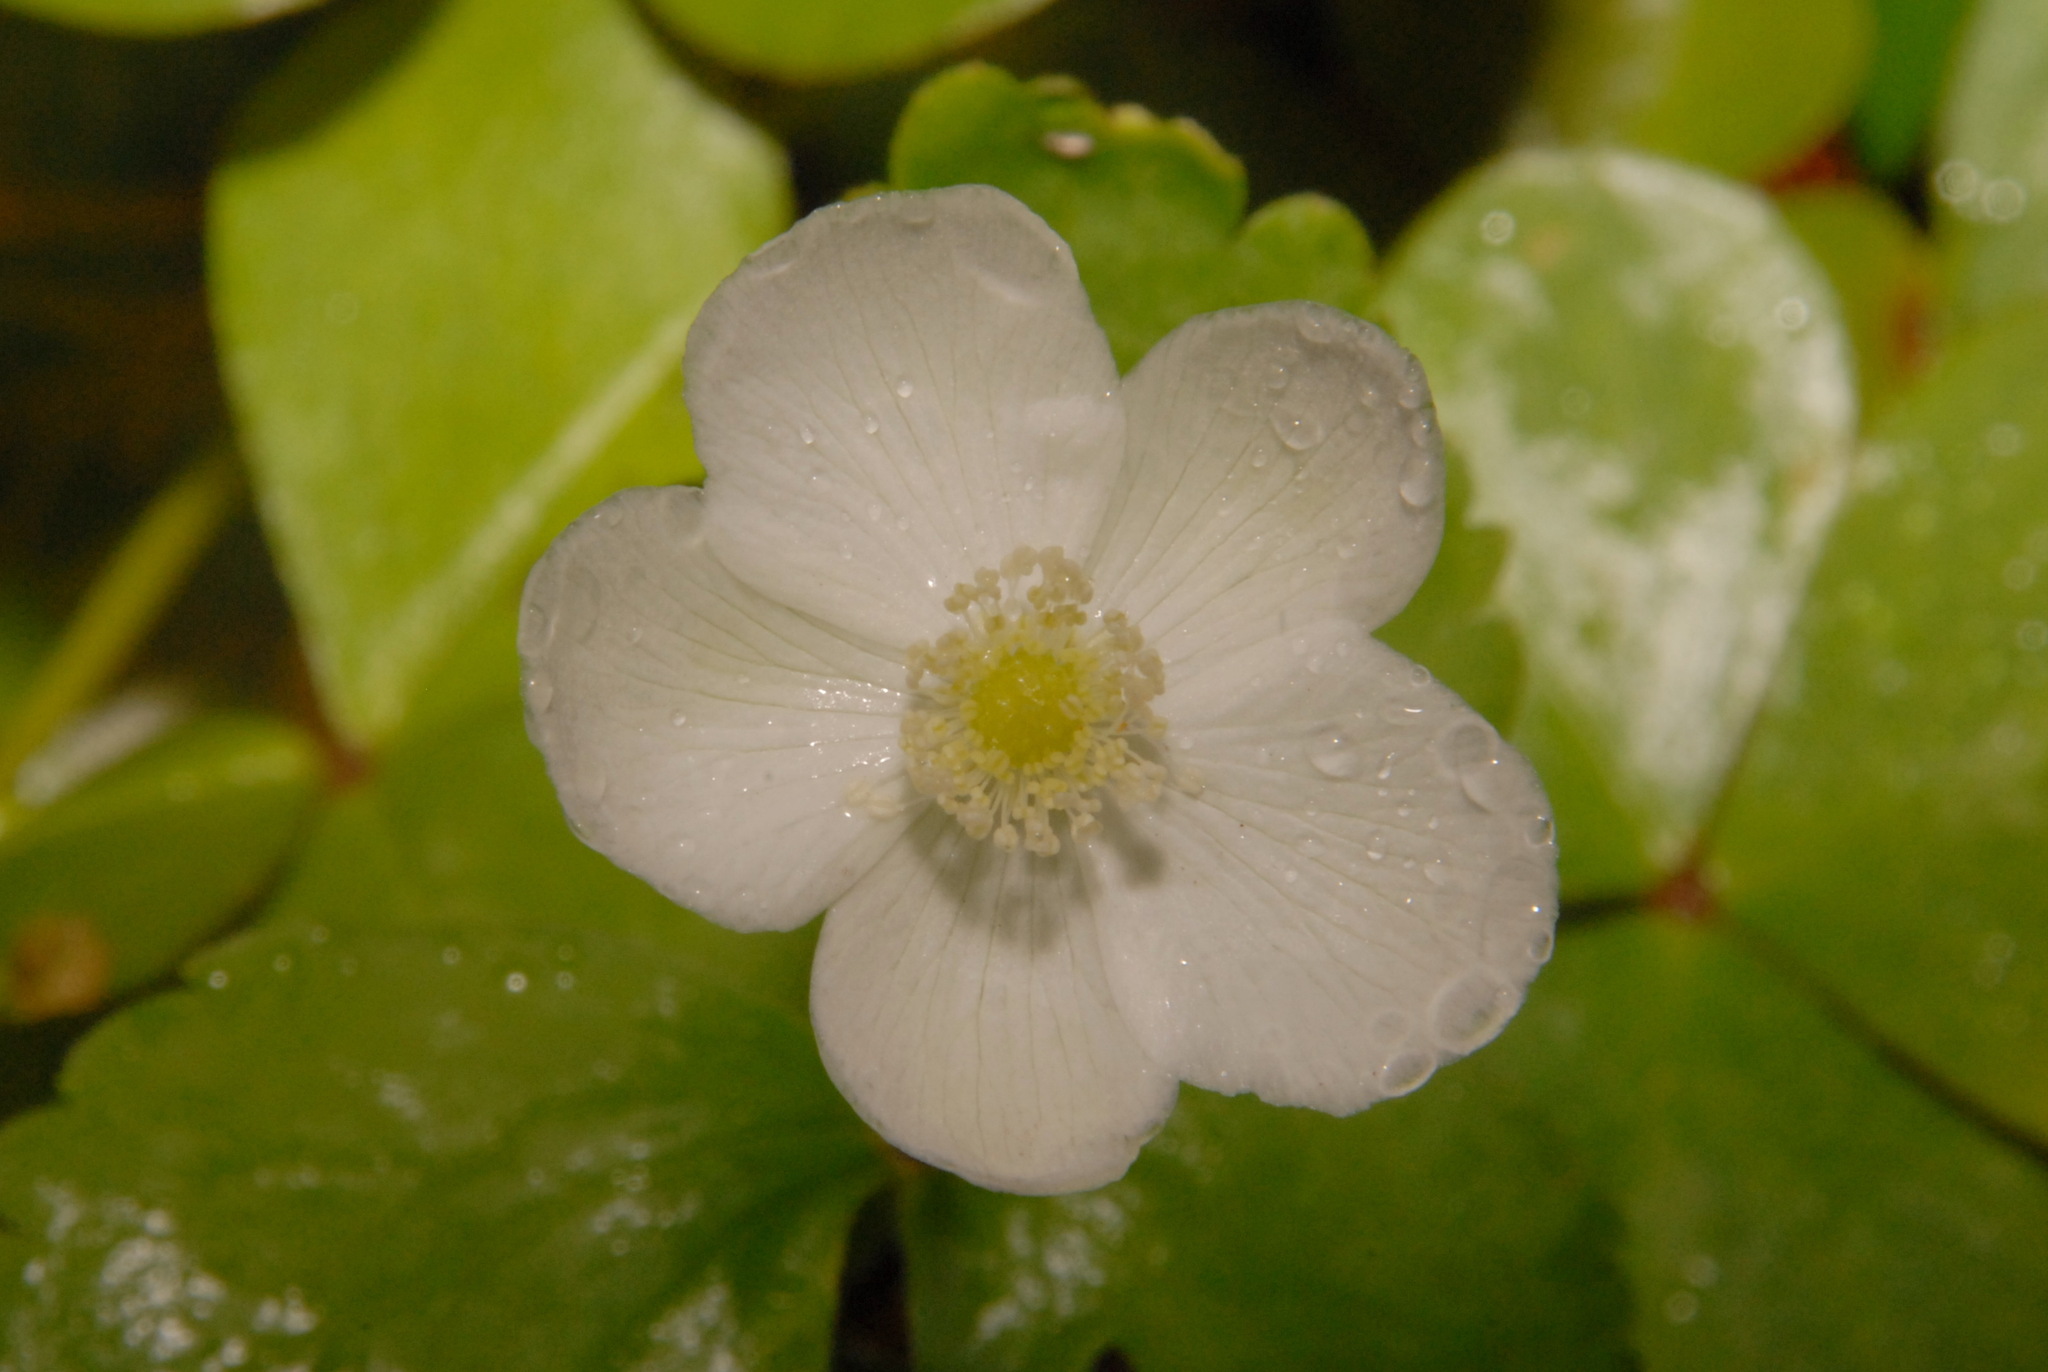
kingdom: Plantae
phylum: Tracheophyta
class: Magnoliopsida
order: Ranunculales
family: Ranunculaceae
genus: Anemonastrum
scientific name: Anemonastrum deltoideum
